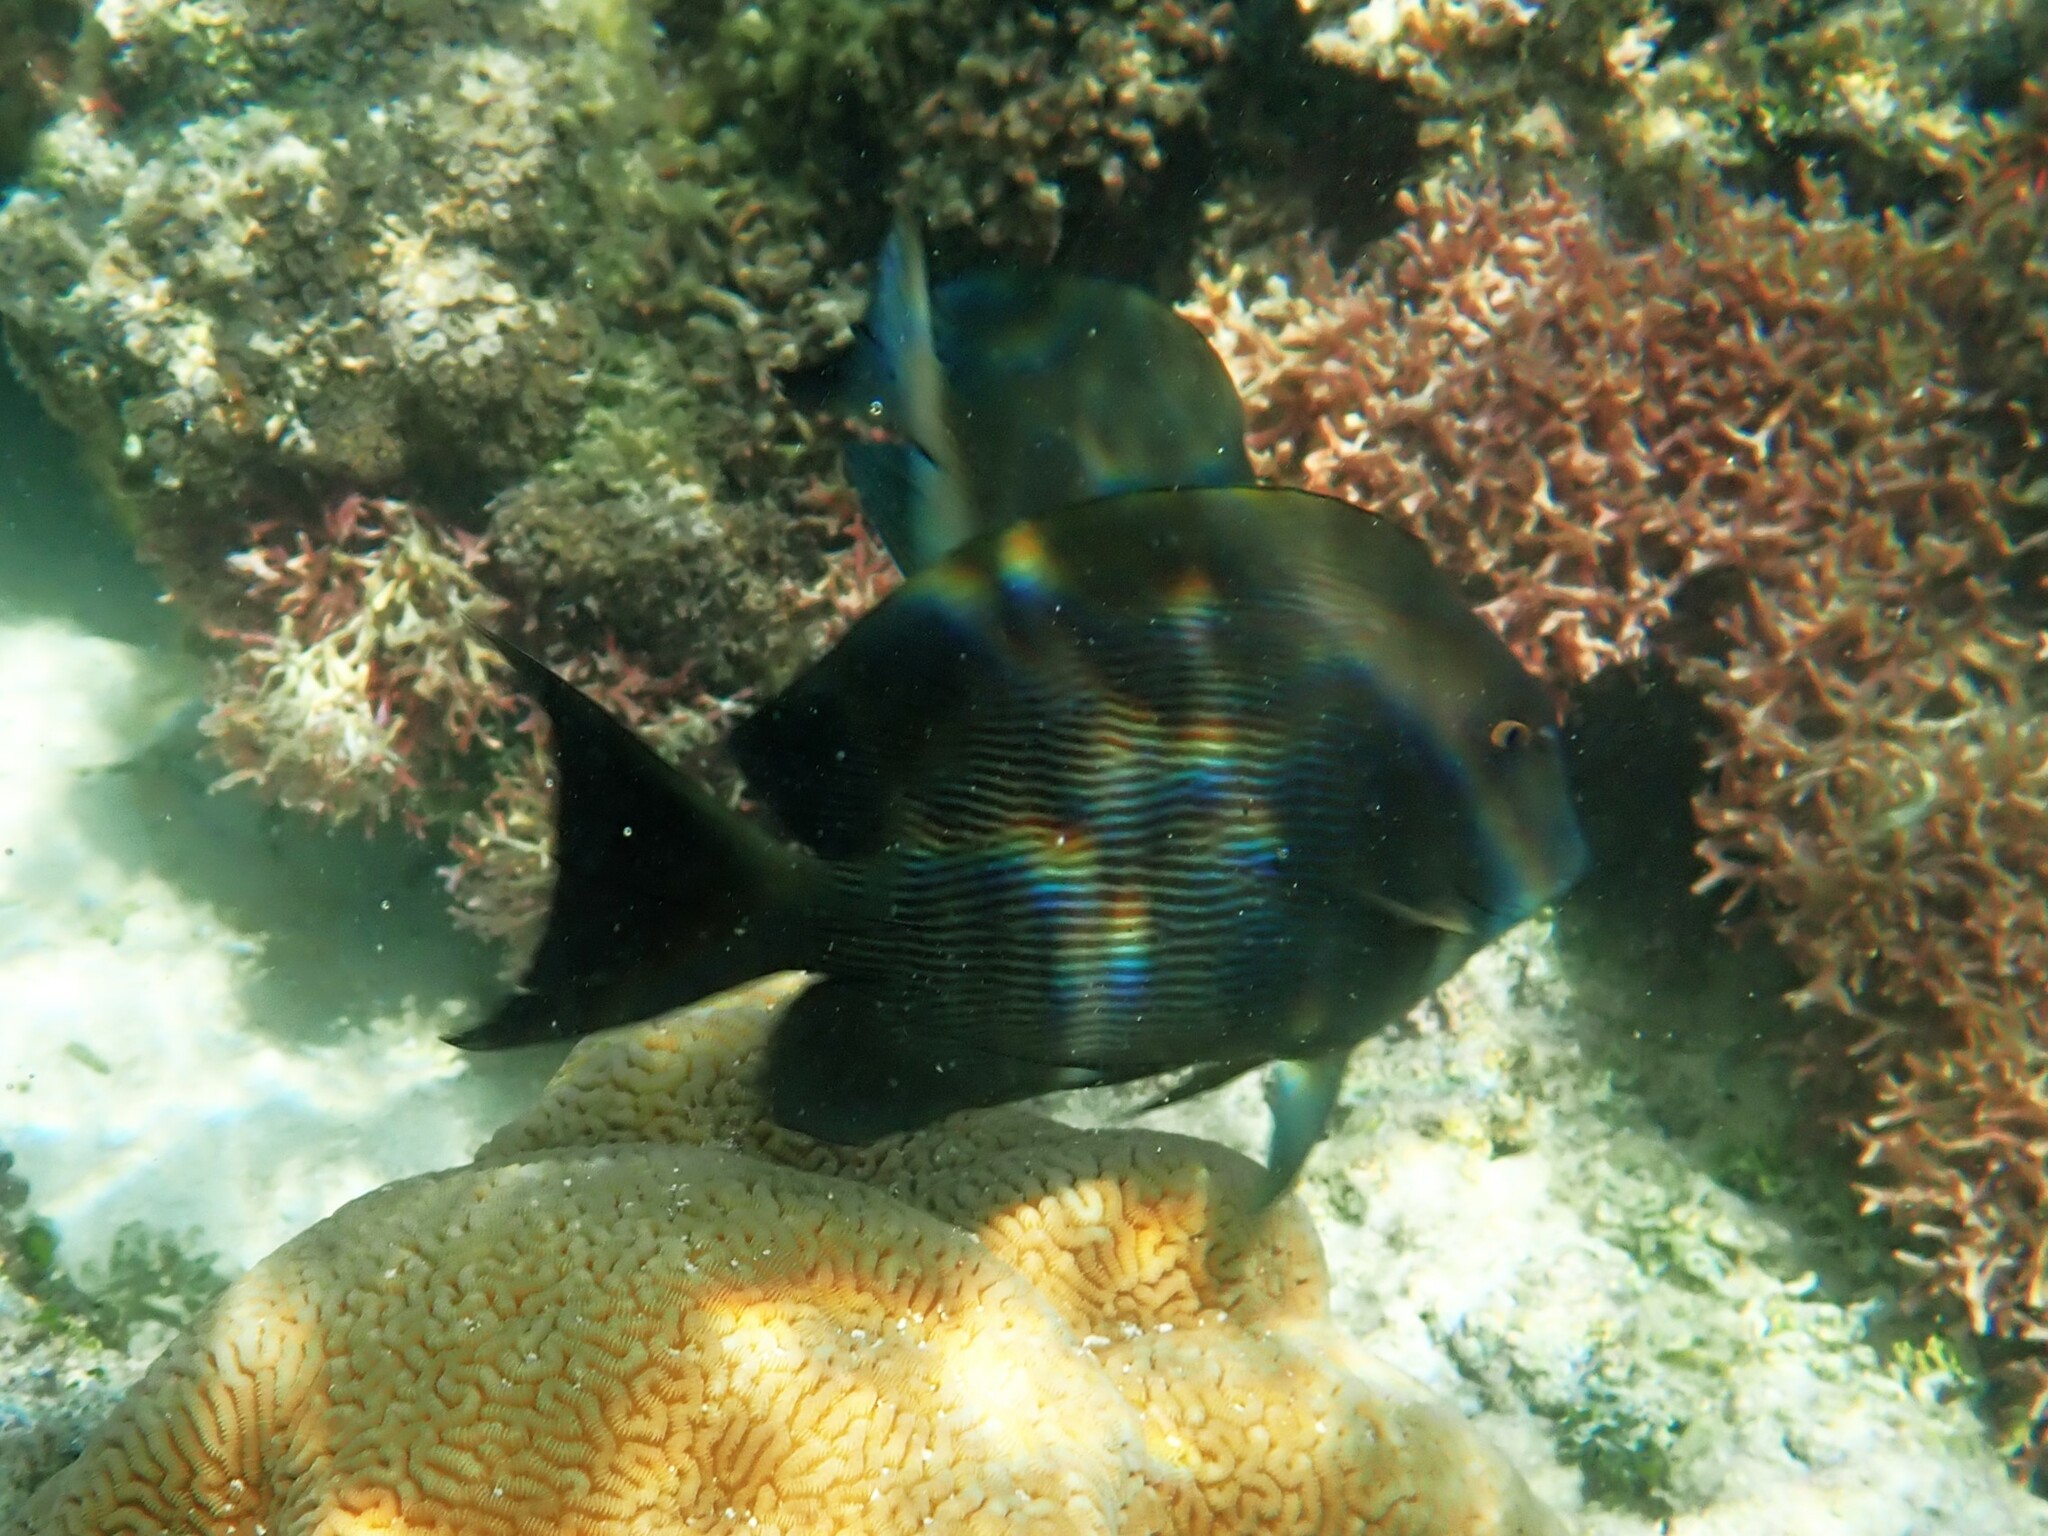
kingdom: Animalia
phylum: Chordata
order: Perciformes
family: Acanthuridae
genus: Ctenochaetus
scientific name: Ctenochaetus striatus
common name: Bristle-toothed surgeonfish
